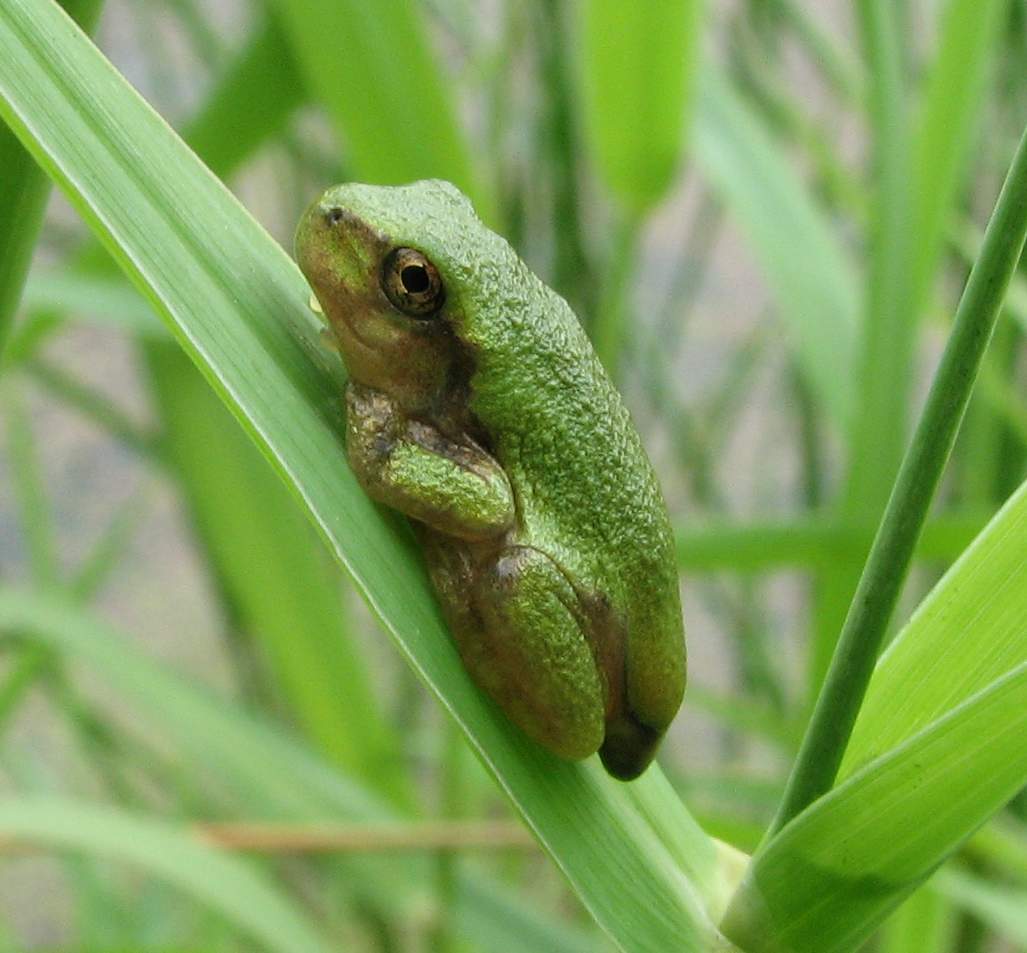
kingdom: Animalia
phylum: Chordata
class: Amphibia
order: Anura
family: Hylidae
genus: Dryophytes
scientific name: Dryophytes versicolor
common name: Gray treefrog
